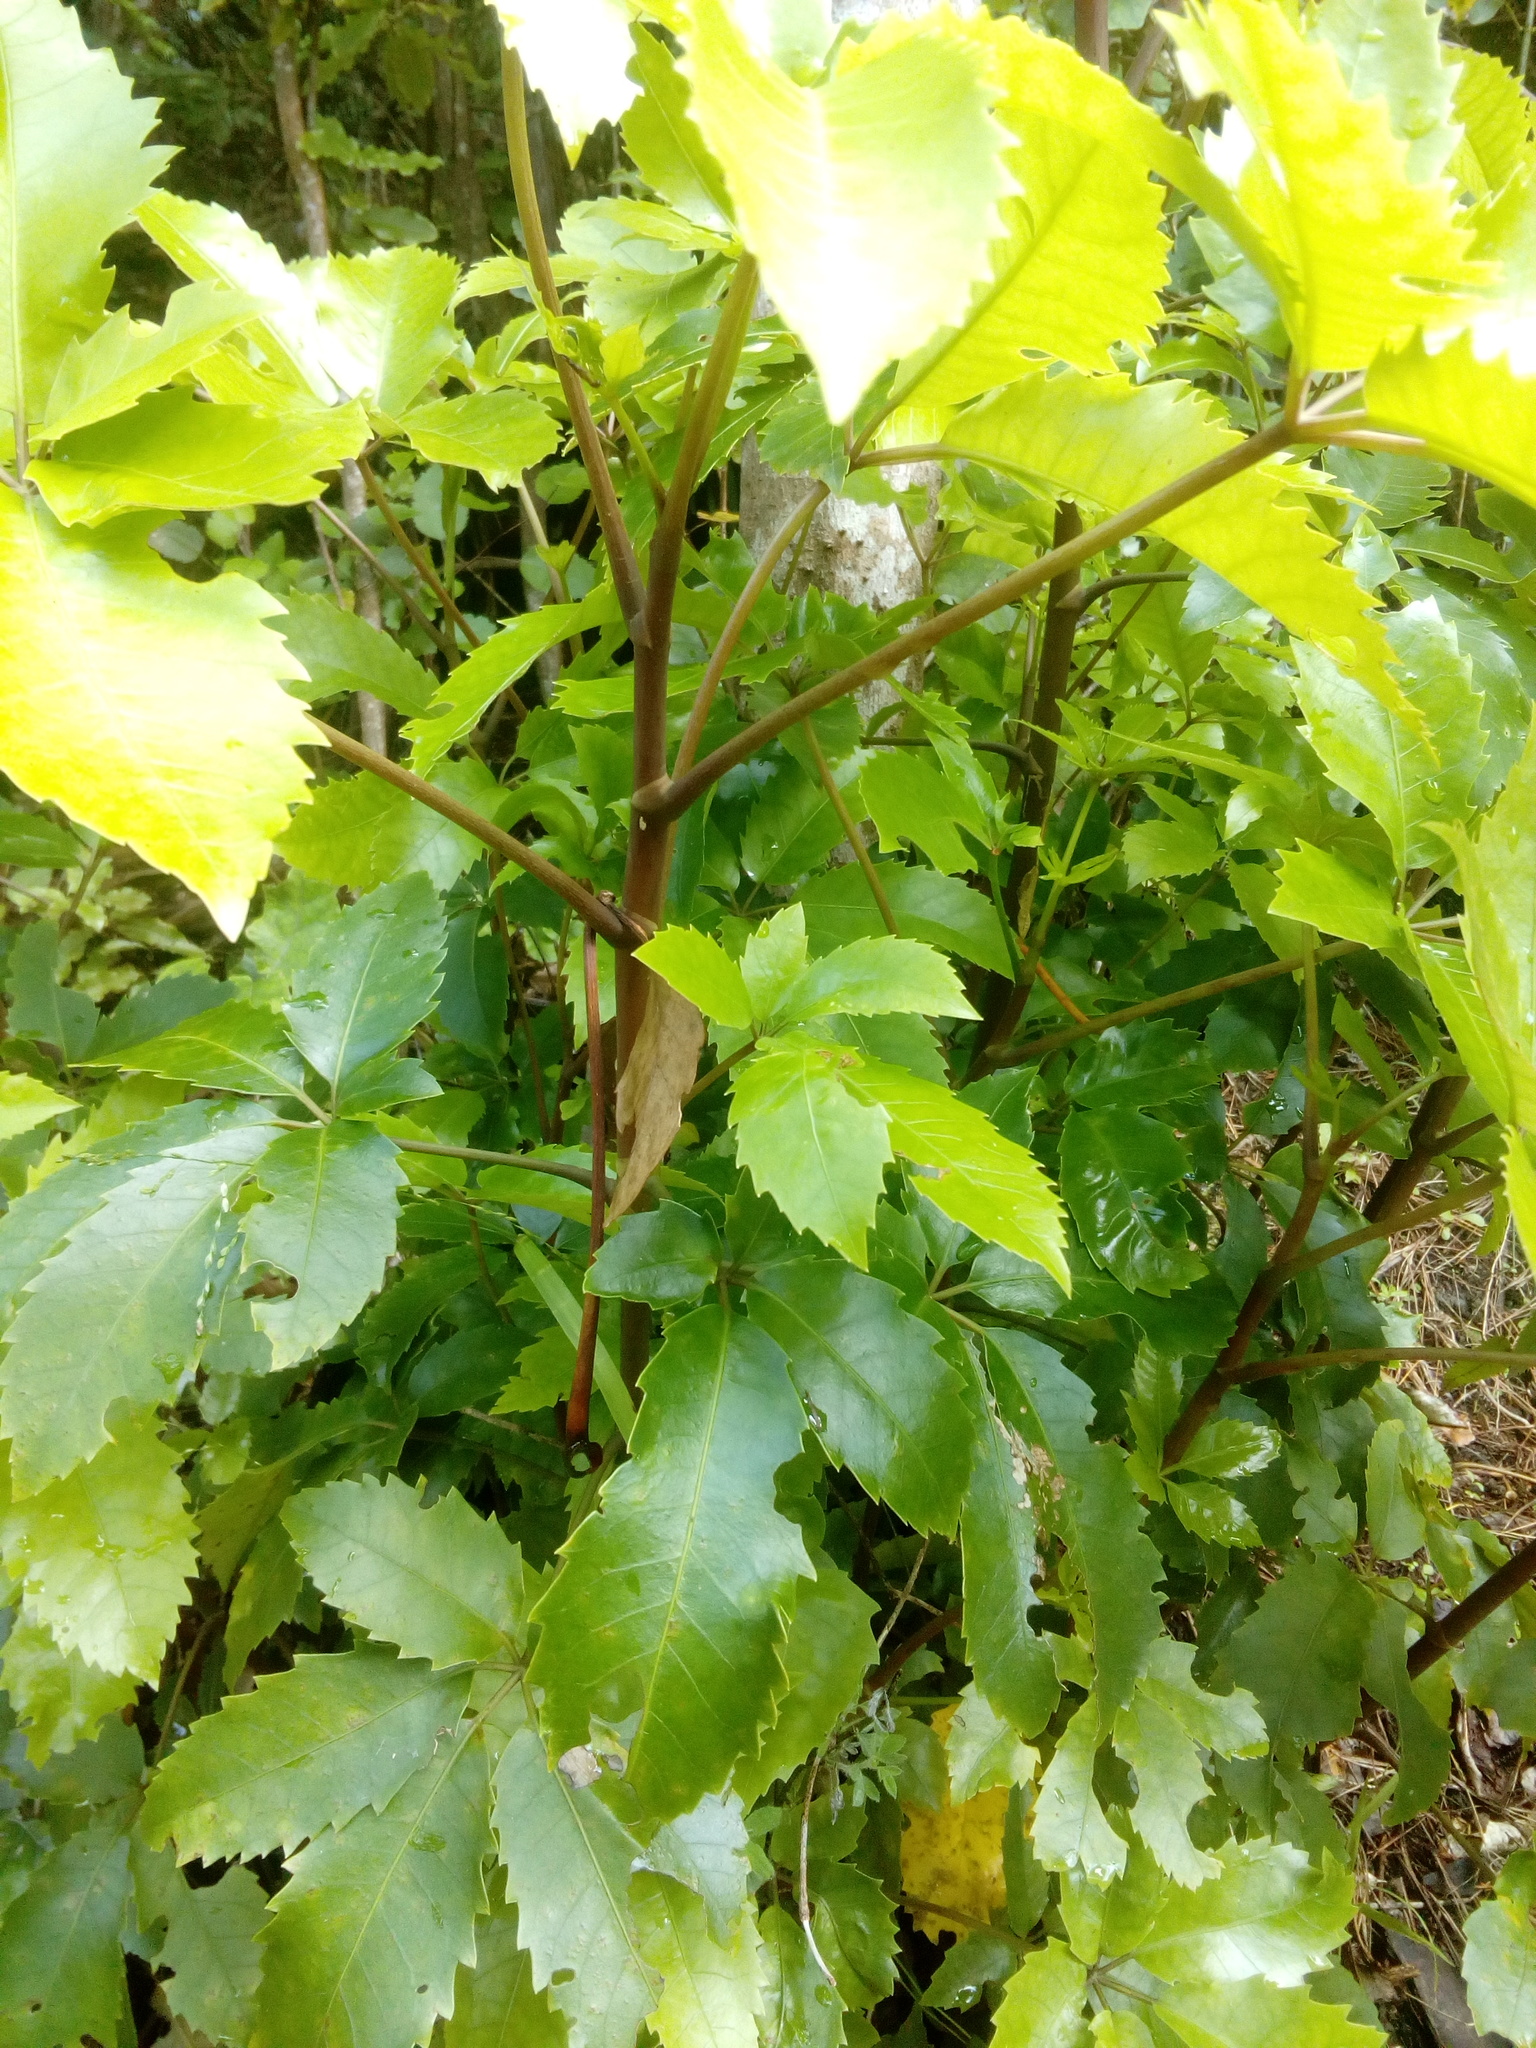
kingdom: Plantae
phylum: Tracheophyta
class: Magnoliopsida
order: Apiales
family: Araliaceae
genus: Neopanax
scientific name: Neopanax arboreus
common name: Five-fingers
